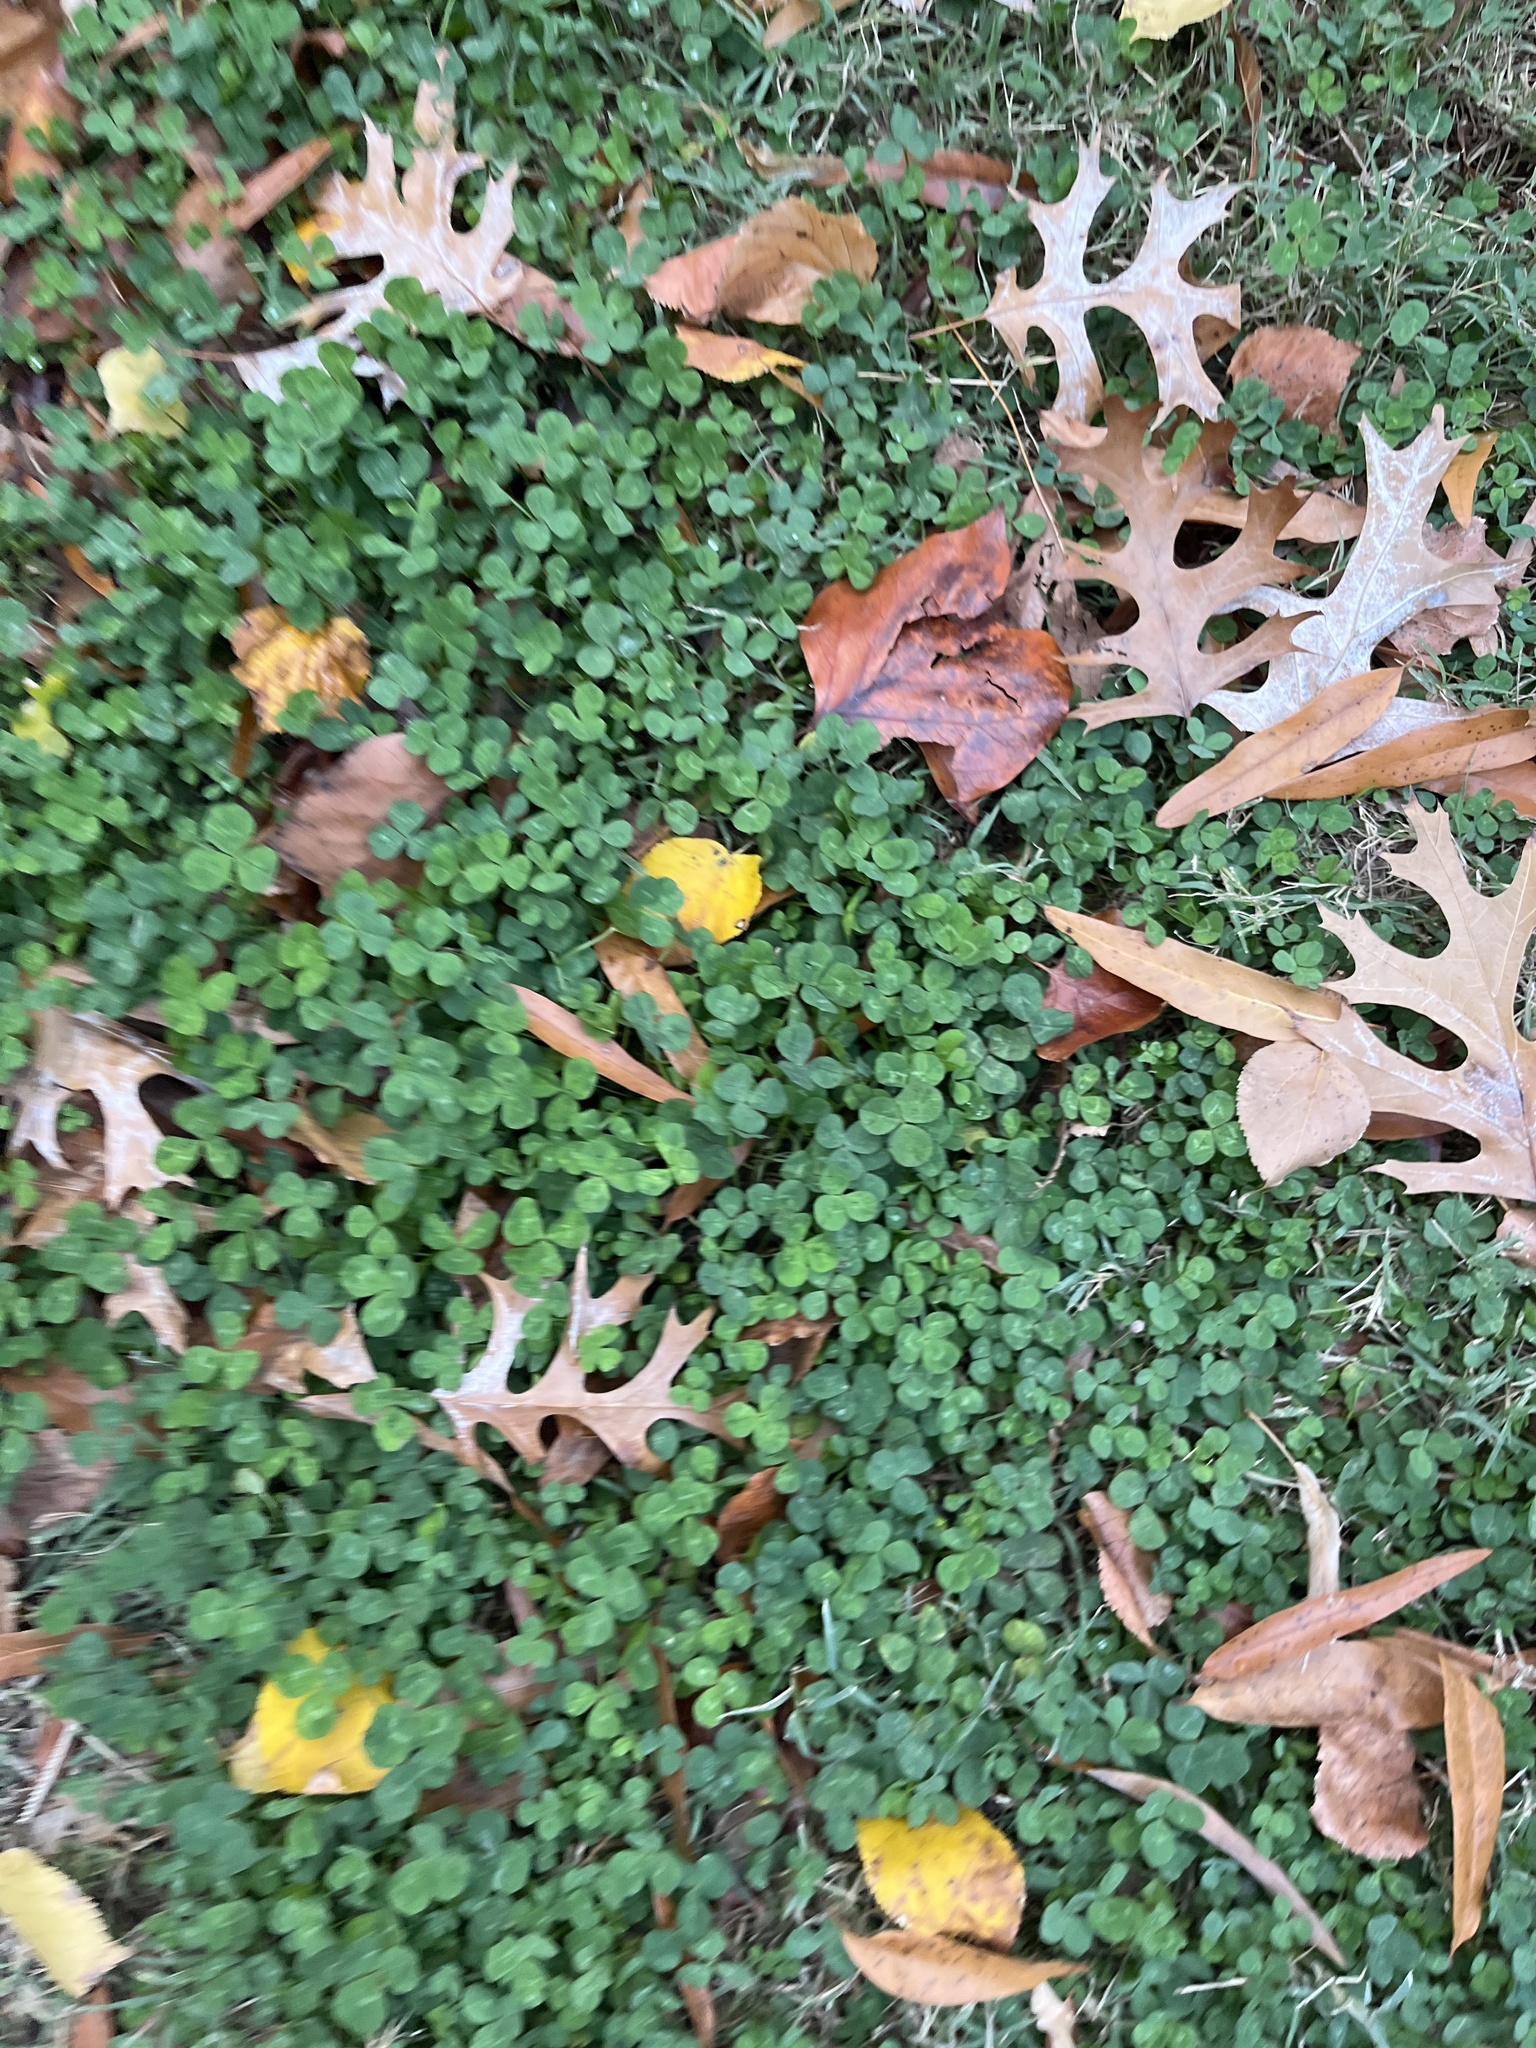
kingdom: Plantae
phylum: Tracheophyta
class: Magnoliopsida
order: Fabales
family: Fabaceae
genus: Trifolium
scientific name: Trifolium repens
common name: White clover
